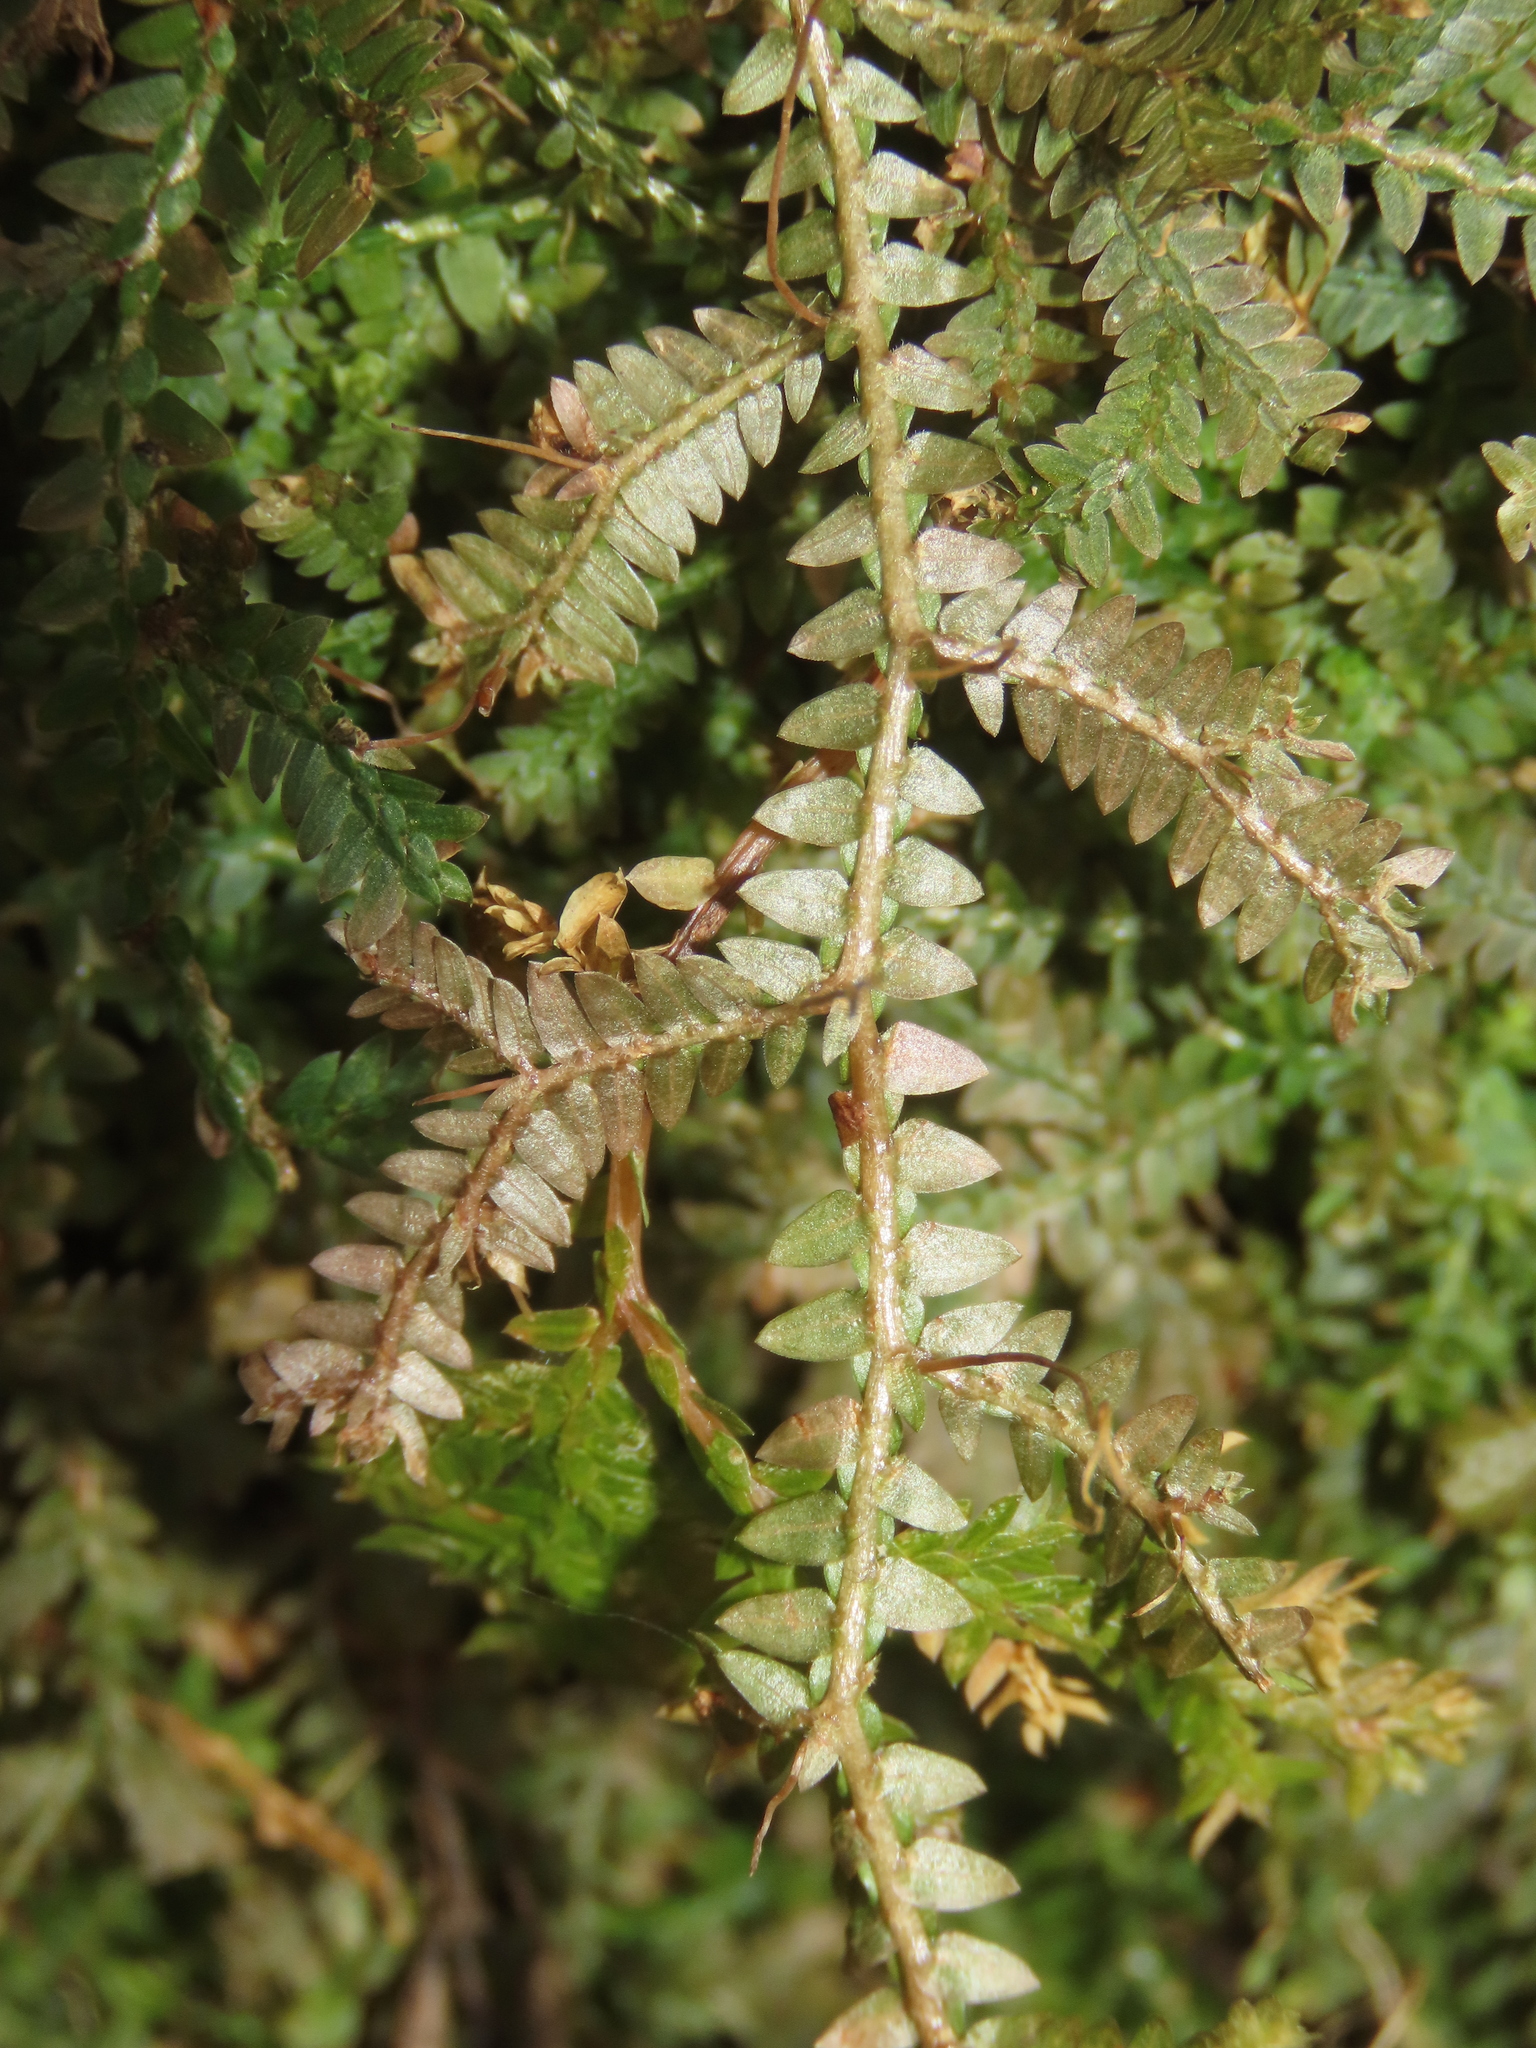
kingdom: Plantae
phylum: Tracheophyta
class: Lycopodiopsida
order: Selaginellales
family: Selaginellaceae
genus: Selaginella
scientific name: Selaginella delicatula
